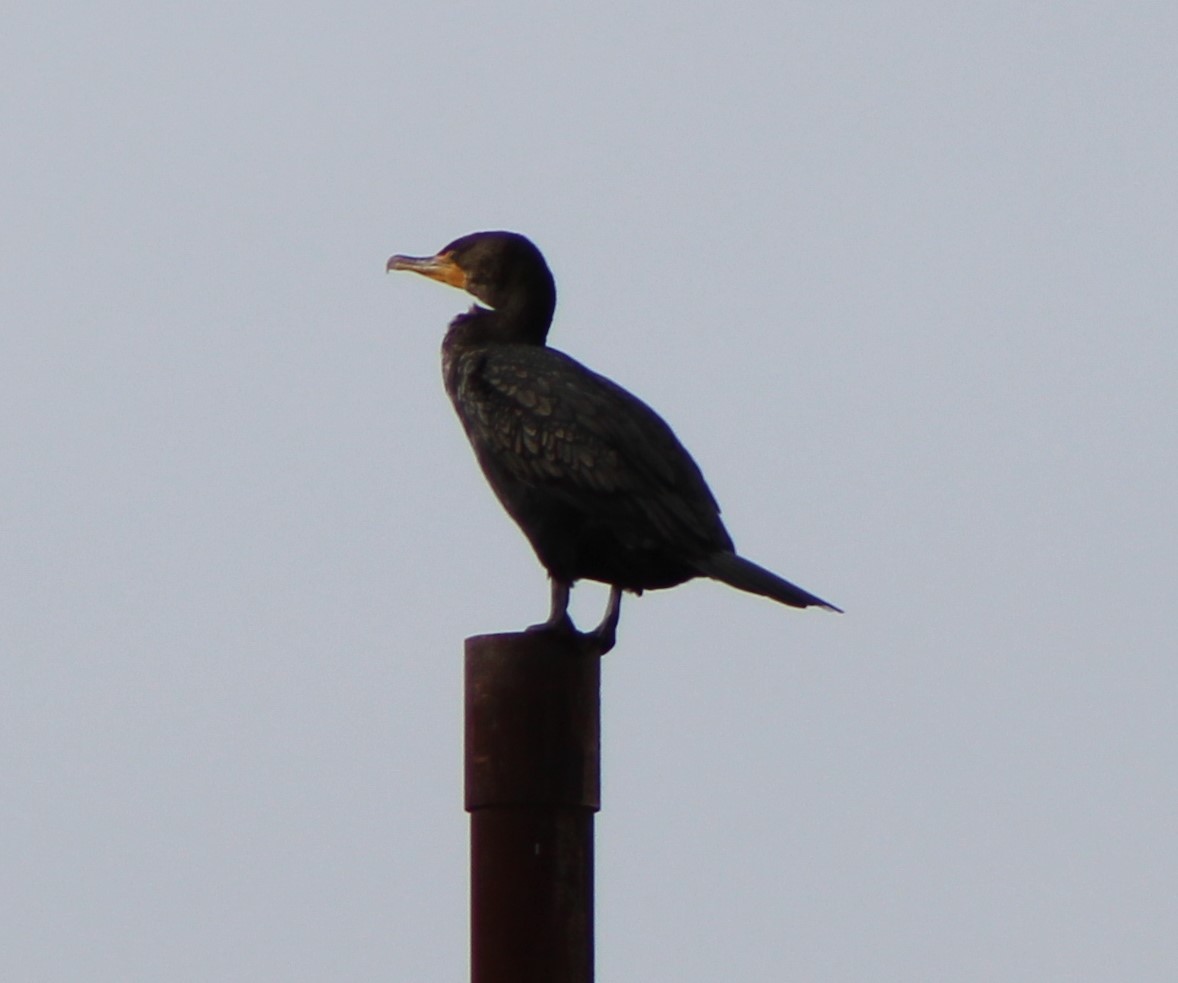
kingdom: Animalia
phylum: Chordata
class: Aves
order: Suliformes
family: Phalacrocoracidae
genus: Phalacrocorax
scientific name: Phalacrocorax auritus
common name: Double-crested cormorant
